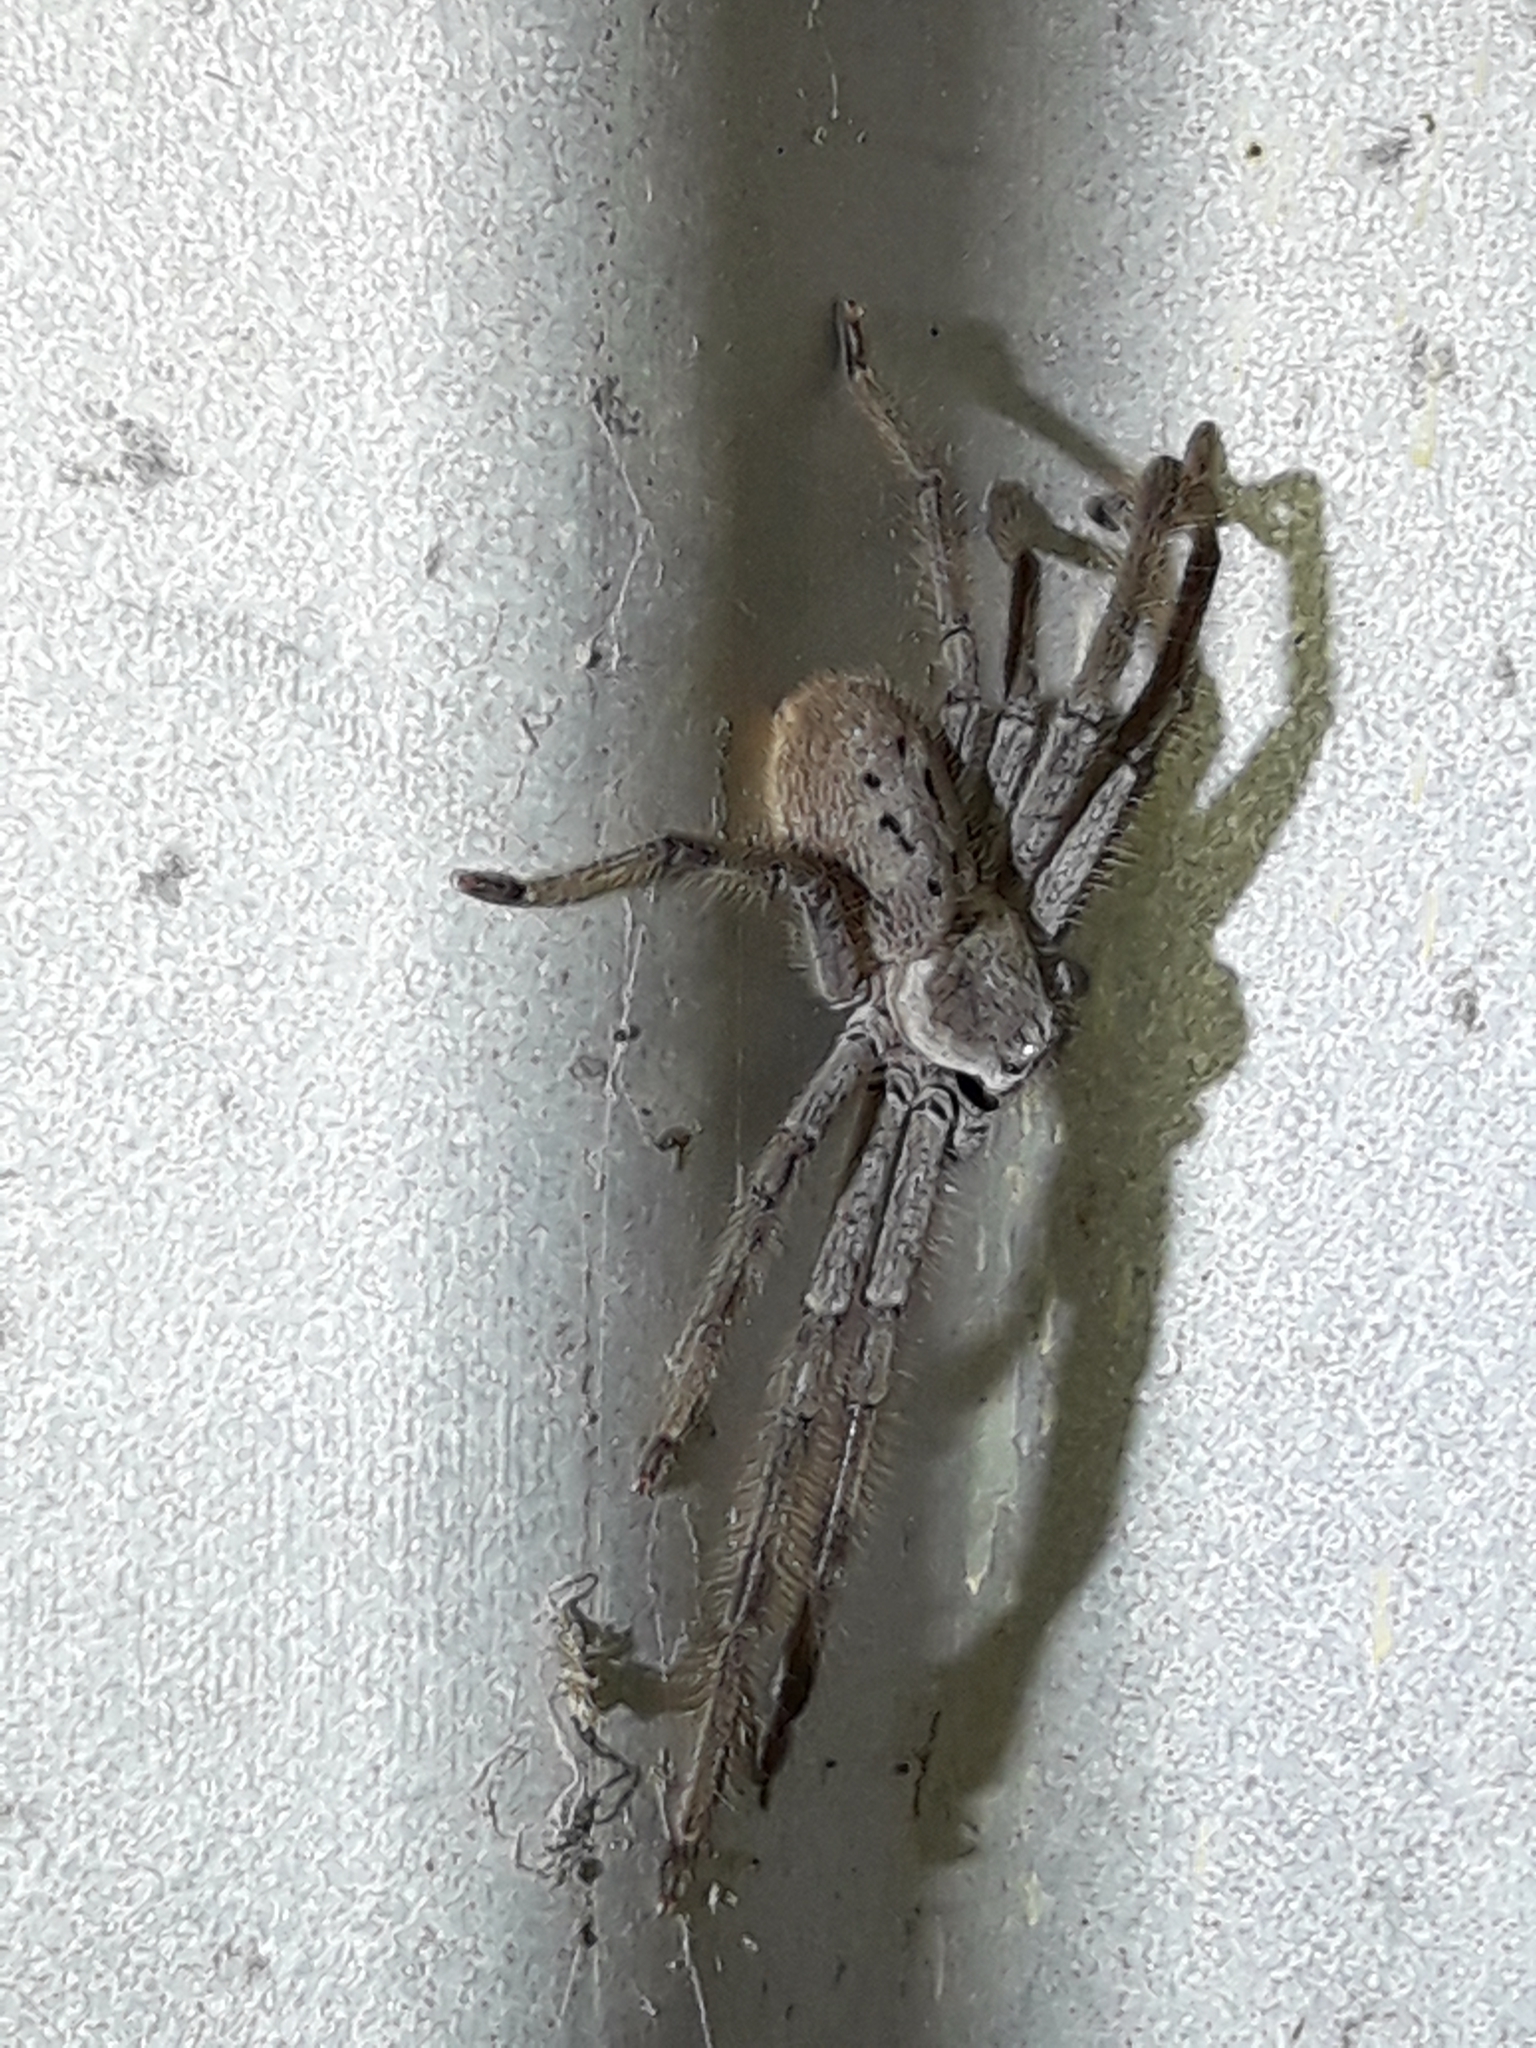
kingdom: Animalia
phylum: Arthropoda
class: Arachnida
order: Araneae
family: Sparassidae
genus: Isopeda
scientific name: Isopeda montana
